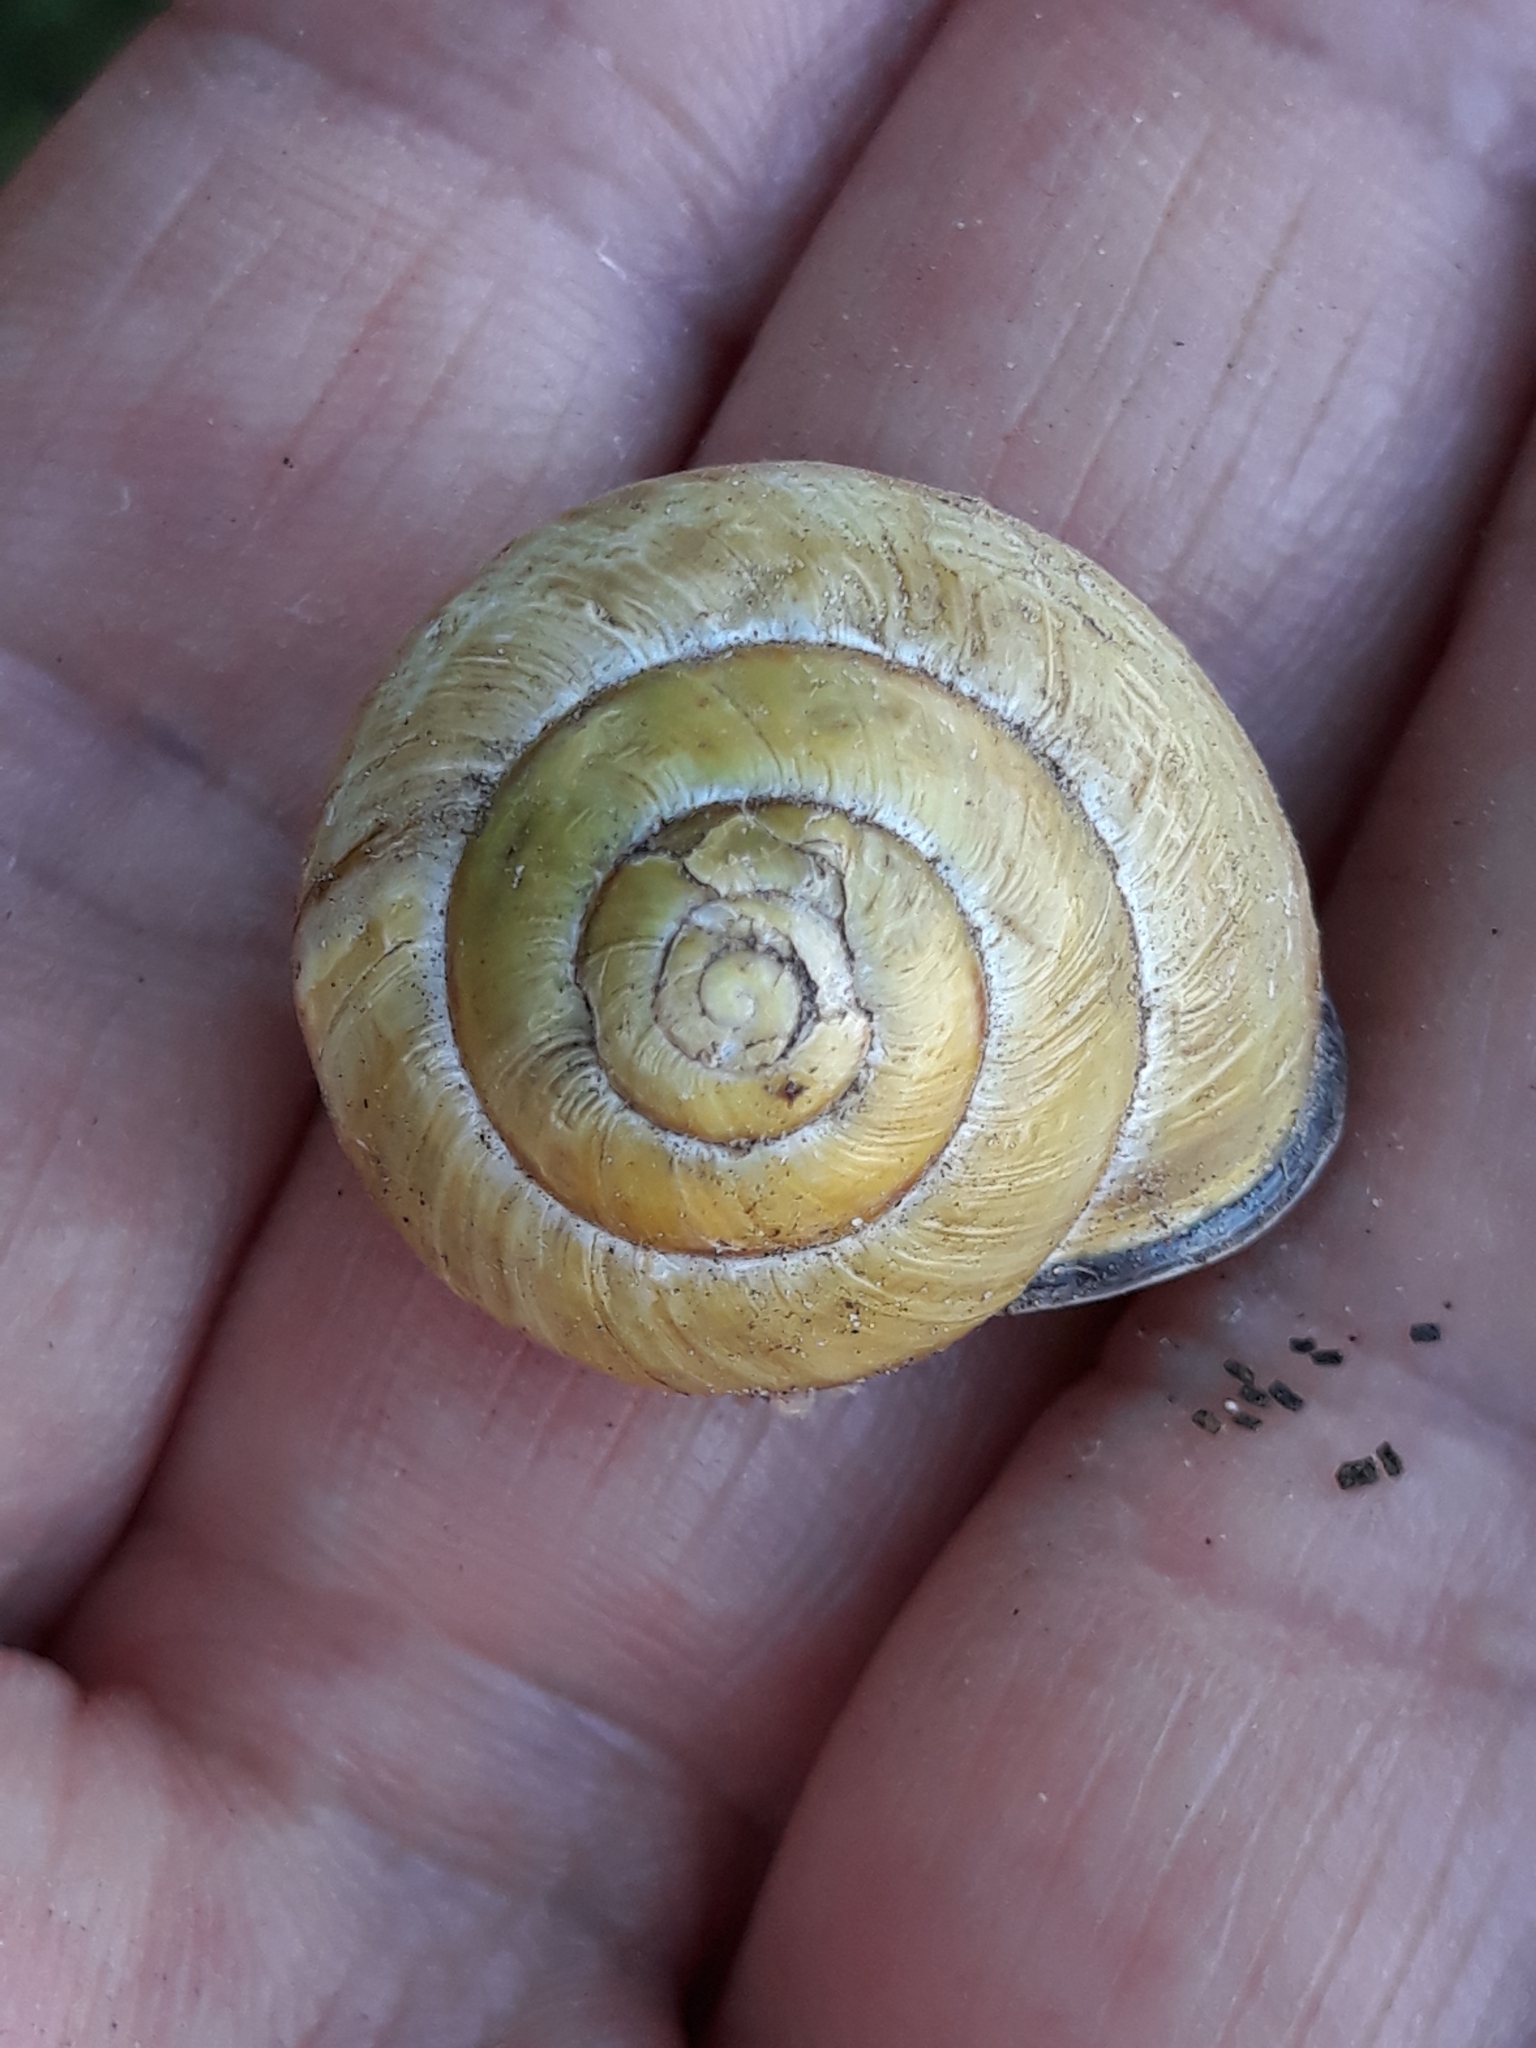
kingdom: Animalia
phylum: Mollusca
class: Gastropoda
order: Stylommatophora
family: Helicidae
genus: Cepaea
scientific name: Cepaea nemoralis
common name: Grovesnail
